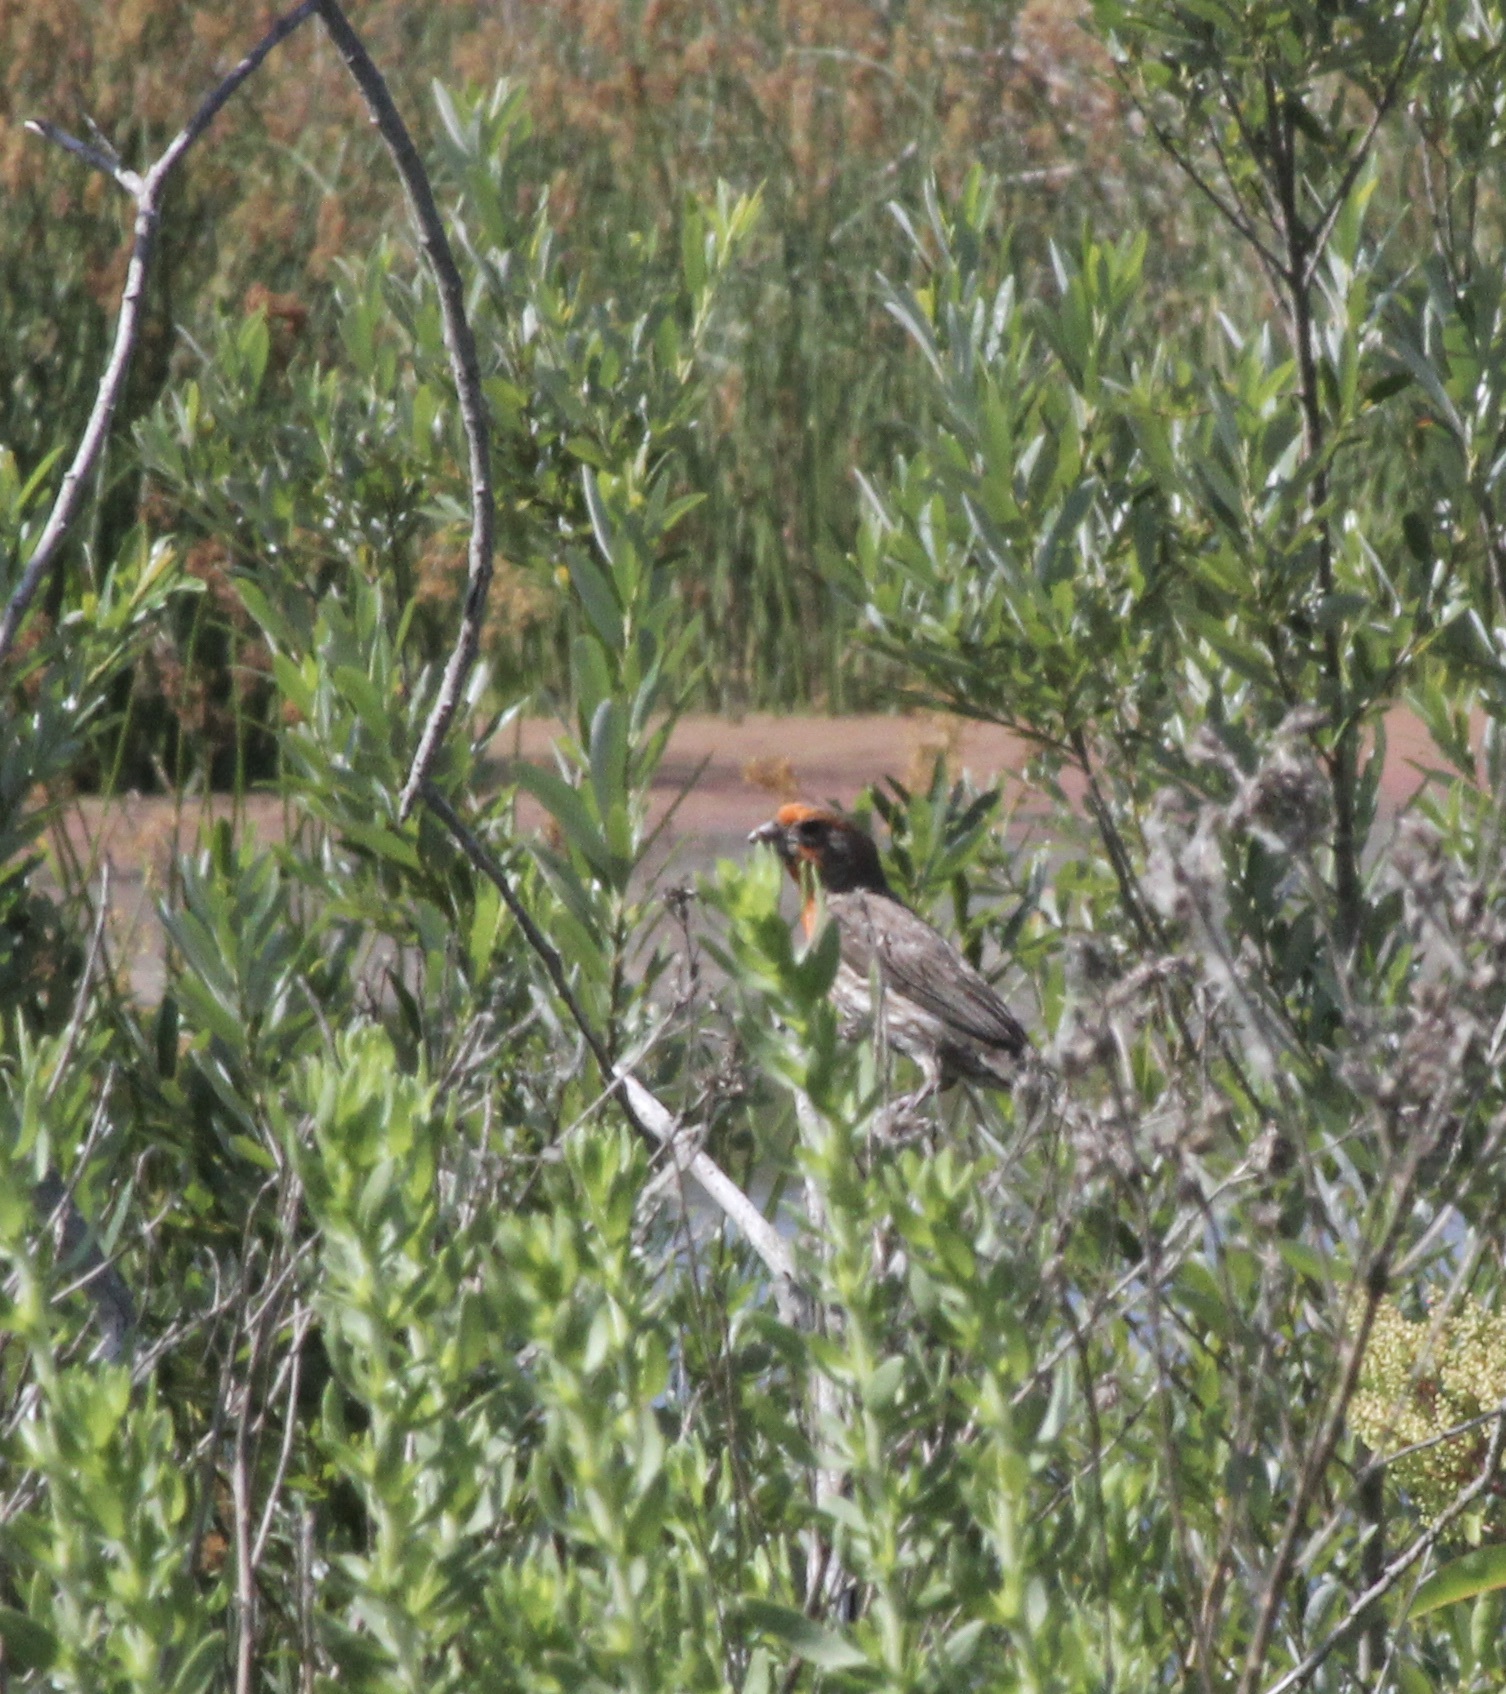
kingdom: Animalia
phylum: Chordata
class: Aves
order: Passeriformes
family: Fringillidae
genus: Haemorhous
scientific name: Haemorhous mexicanus
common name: House finch
